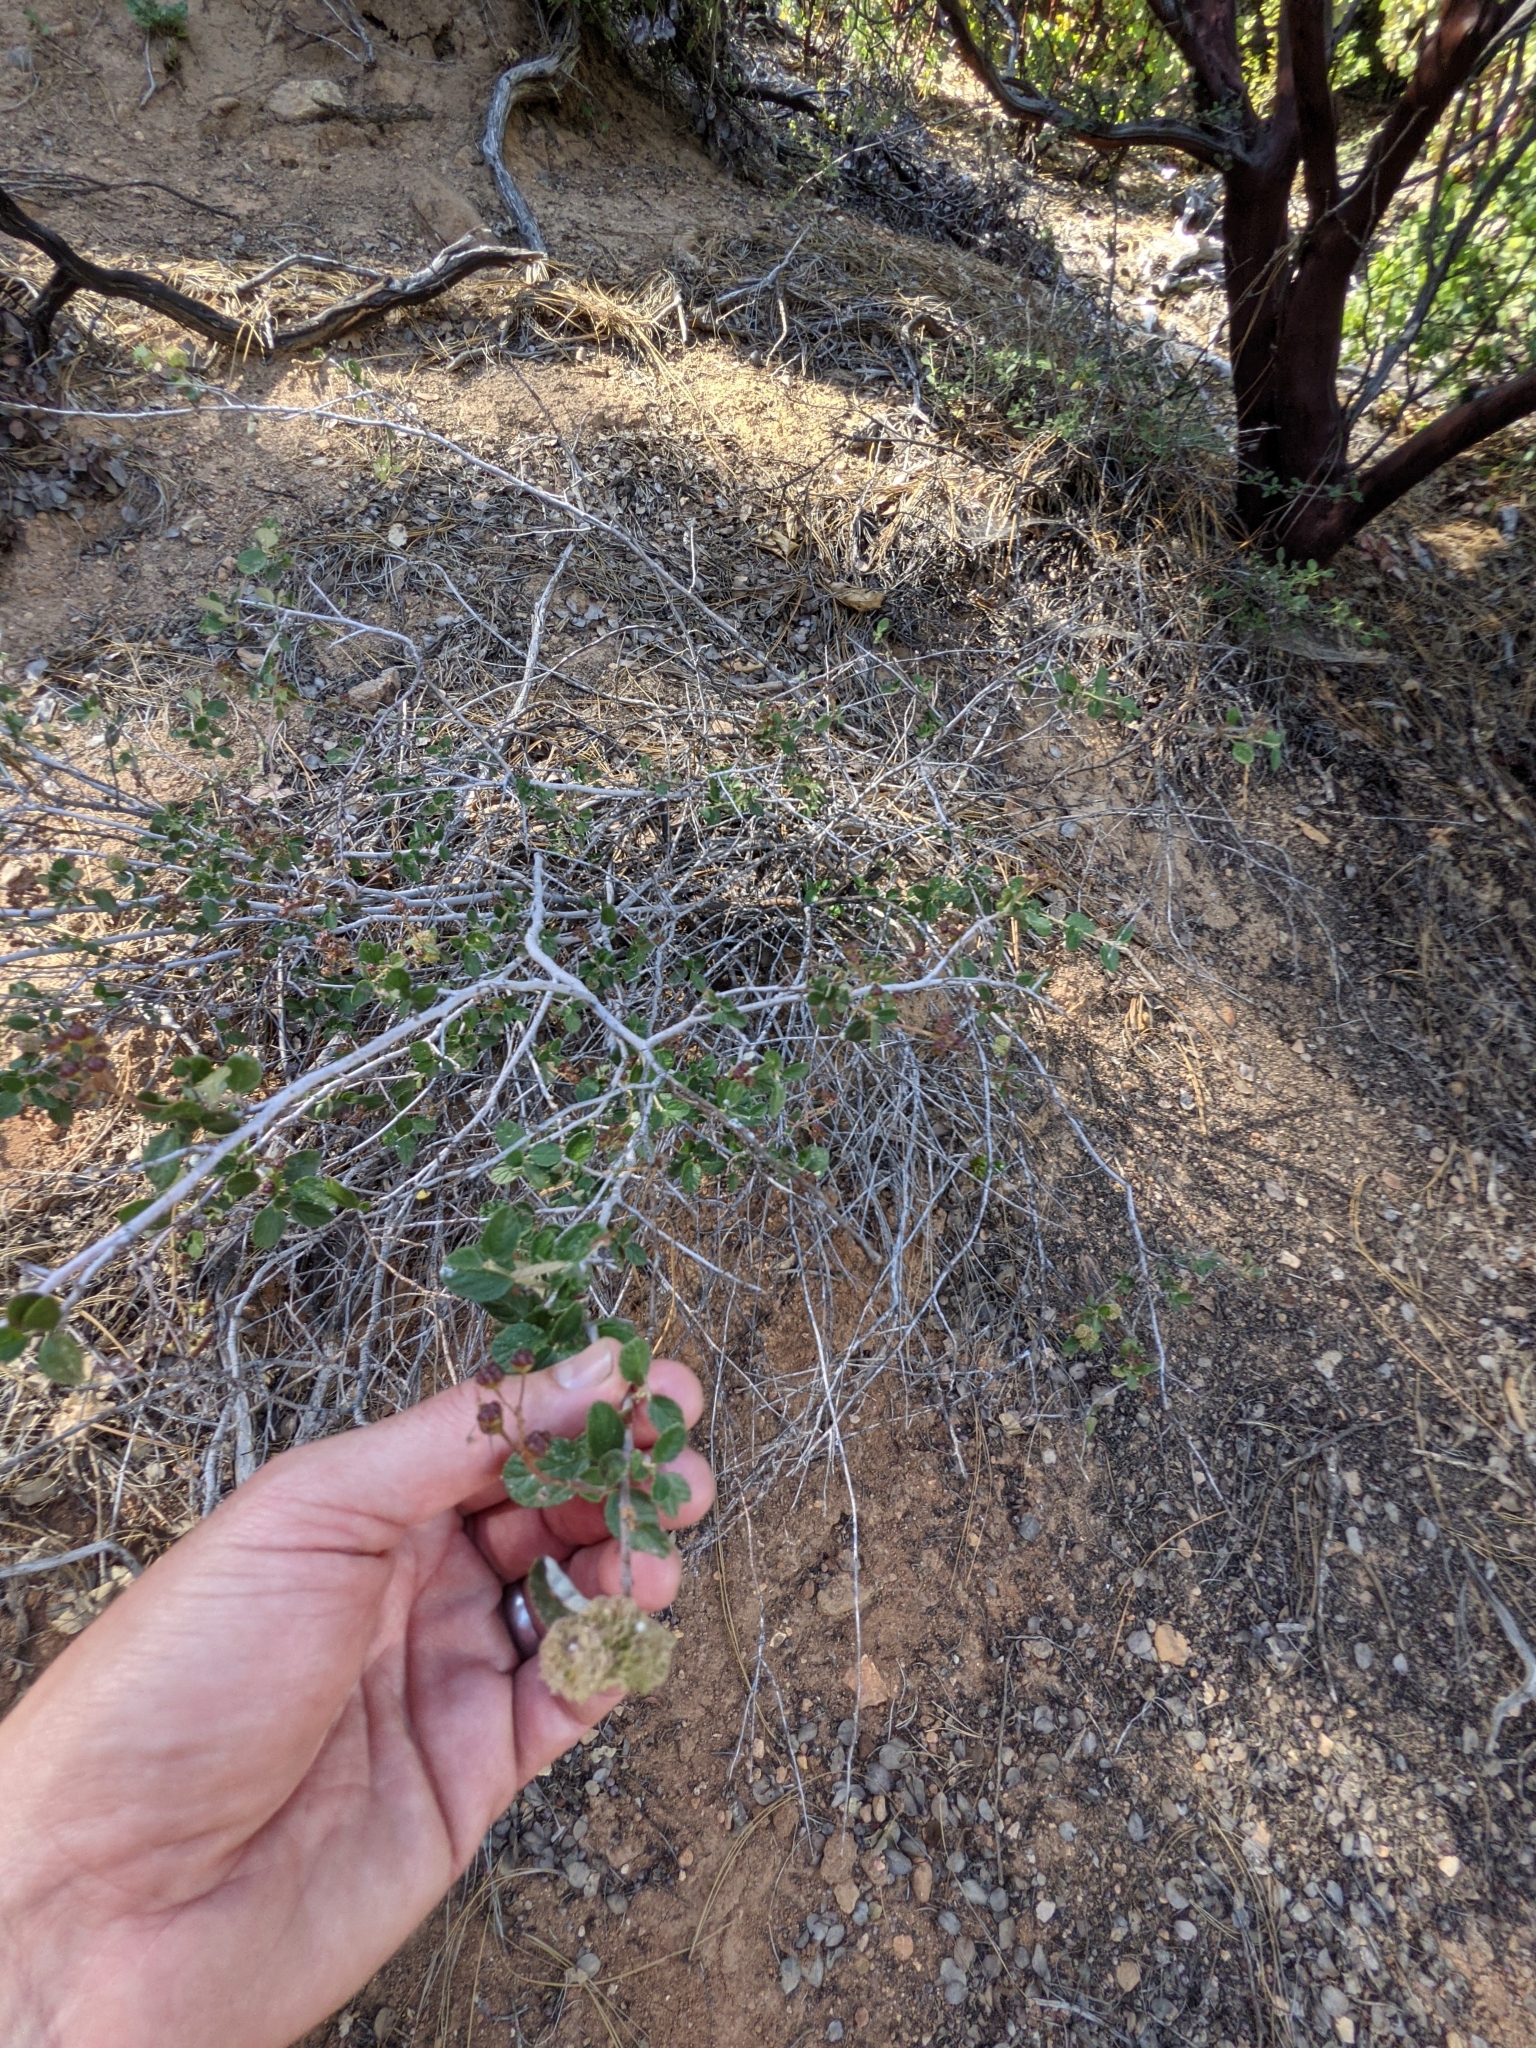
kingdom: Plantae
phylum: Tracheophyta
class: Magnoliopsida
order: Rosales
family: Rhamnaceae
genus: Ceanothus
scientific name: Ceanothus tomentosus
